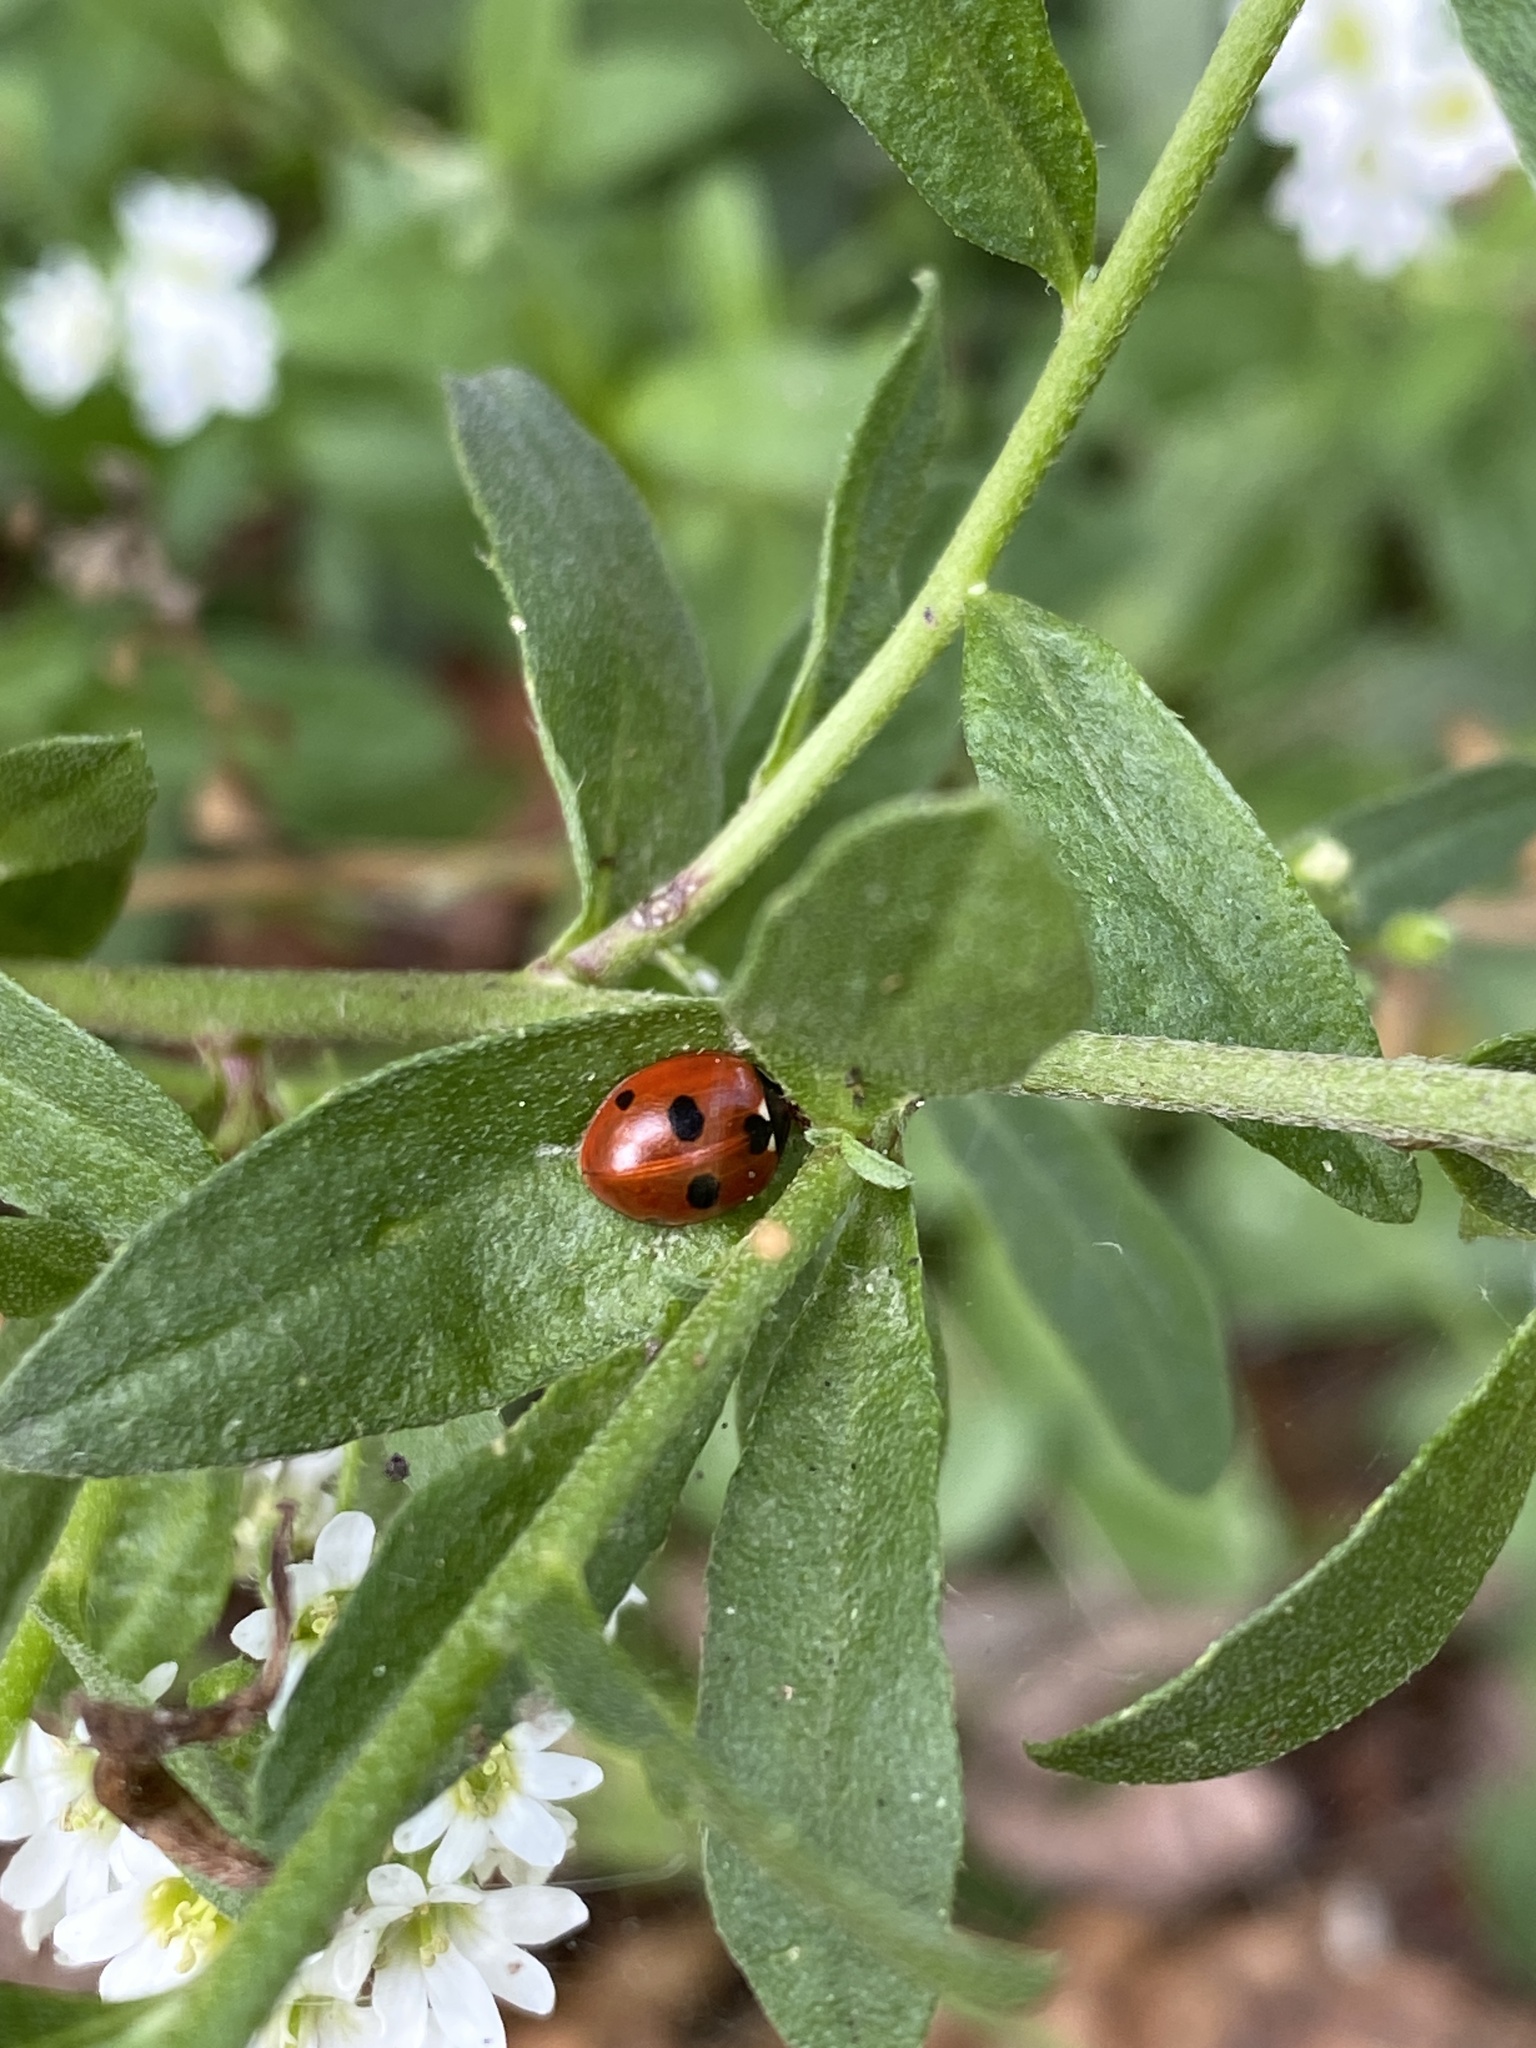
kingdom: Animalia
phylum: Arthropoda
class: Insecta
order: Coleoptera
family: Coccinellidae
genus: Coccinella
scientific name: Coccinella quinquepunctata
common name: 5-spot ladybird
